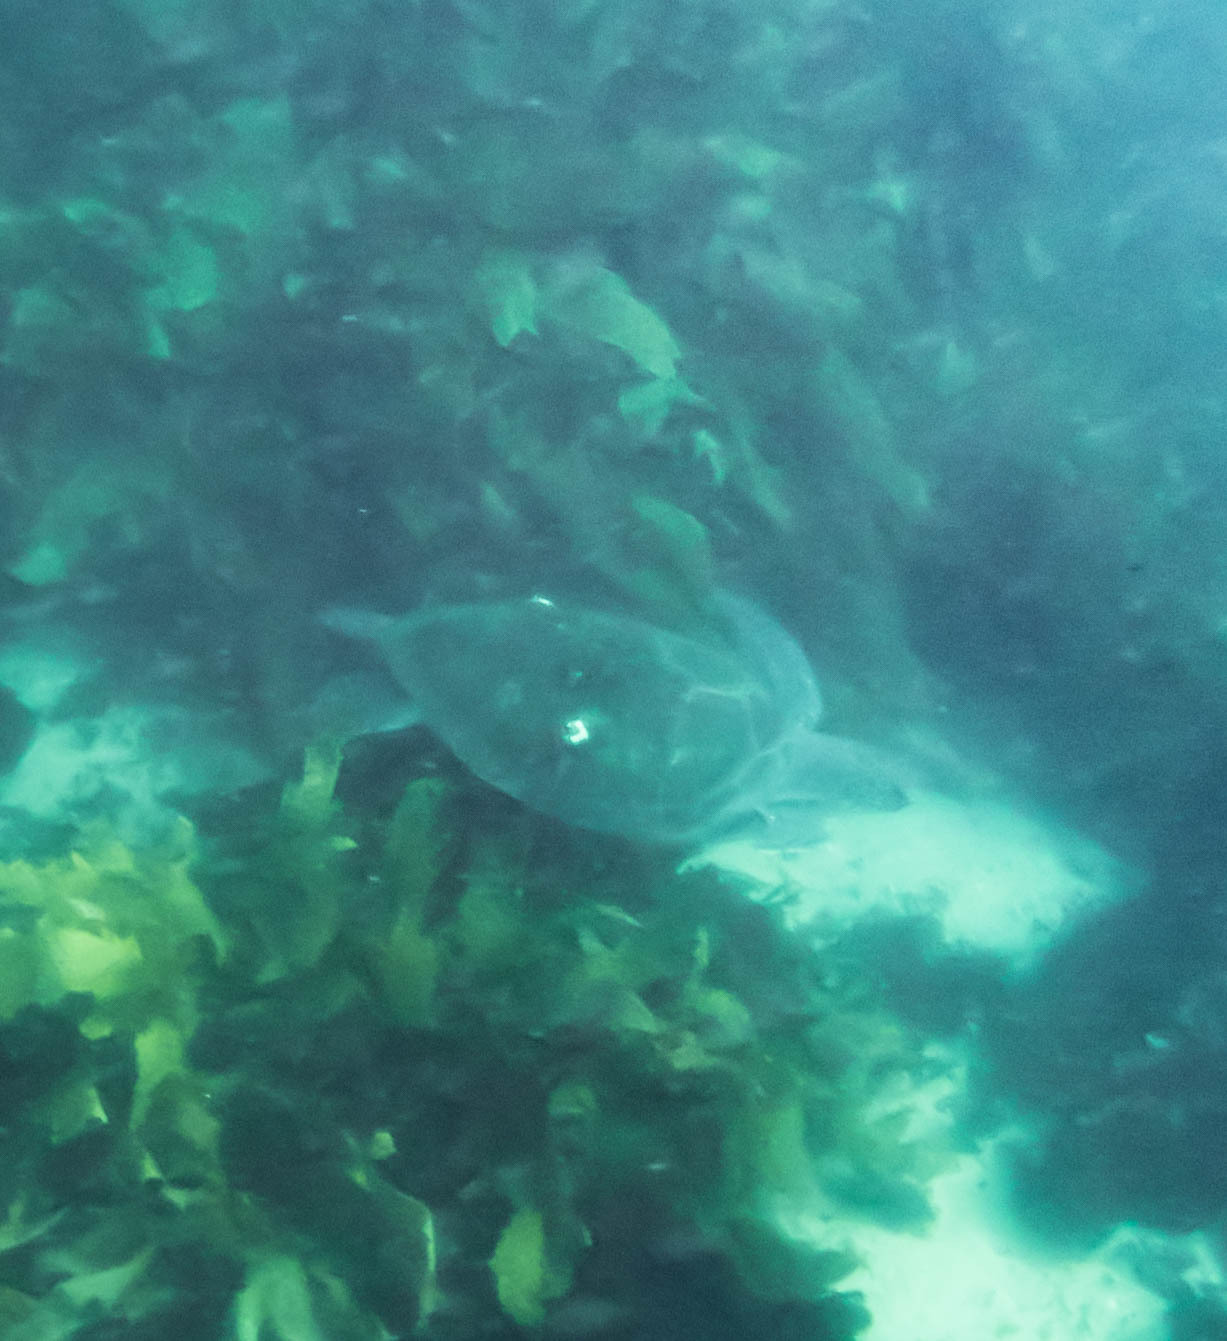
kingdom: Animalia
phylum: Chordata
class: Testudines
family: Cheloniidae
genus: Chelonia
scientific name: Chelonia mydas
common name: Green turtle
